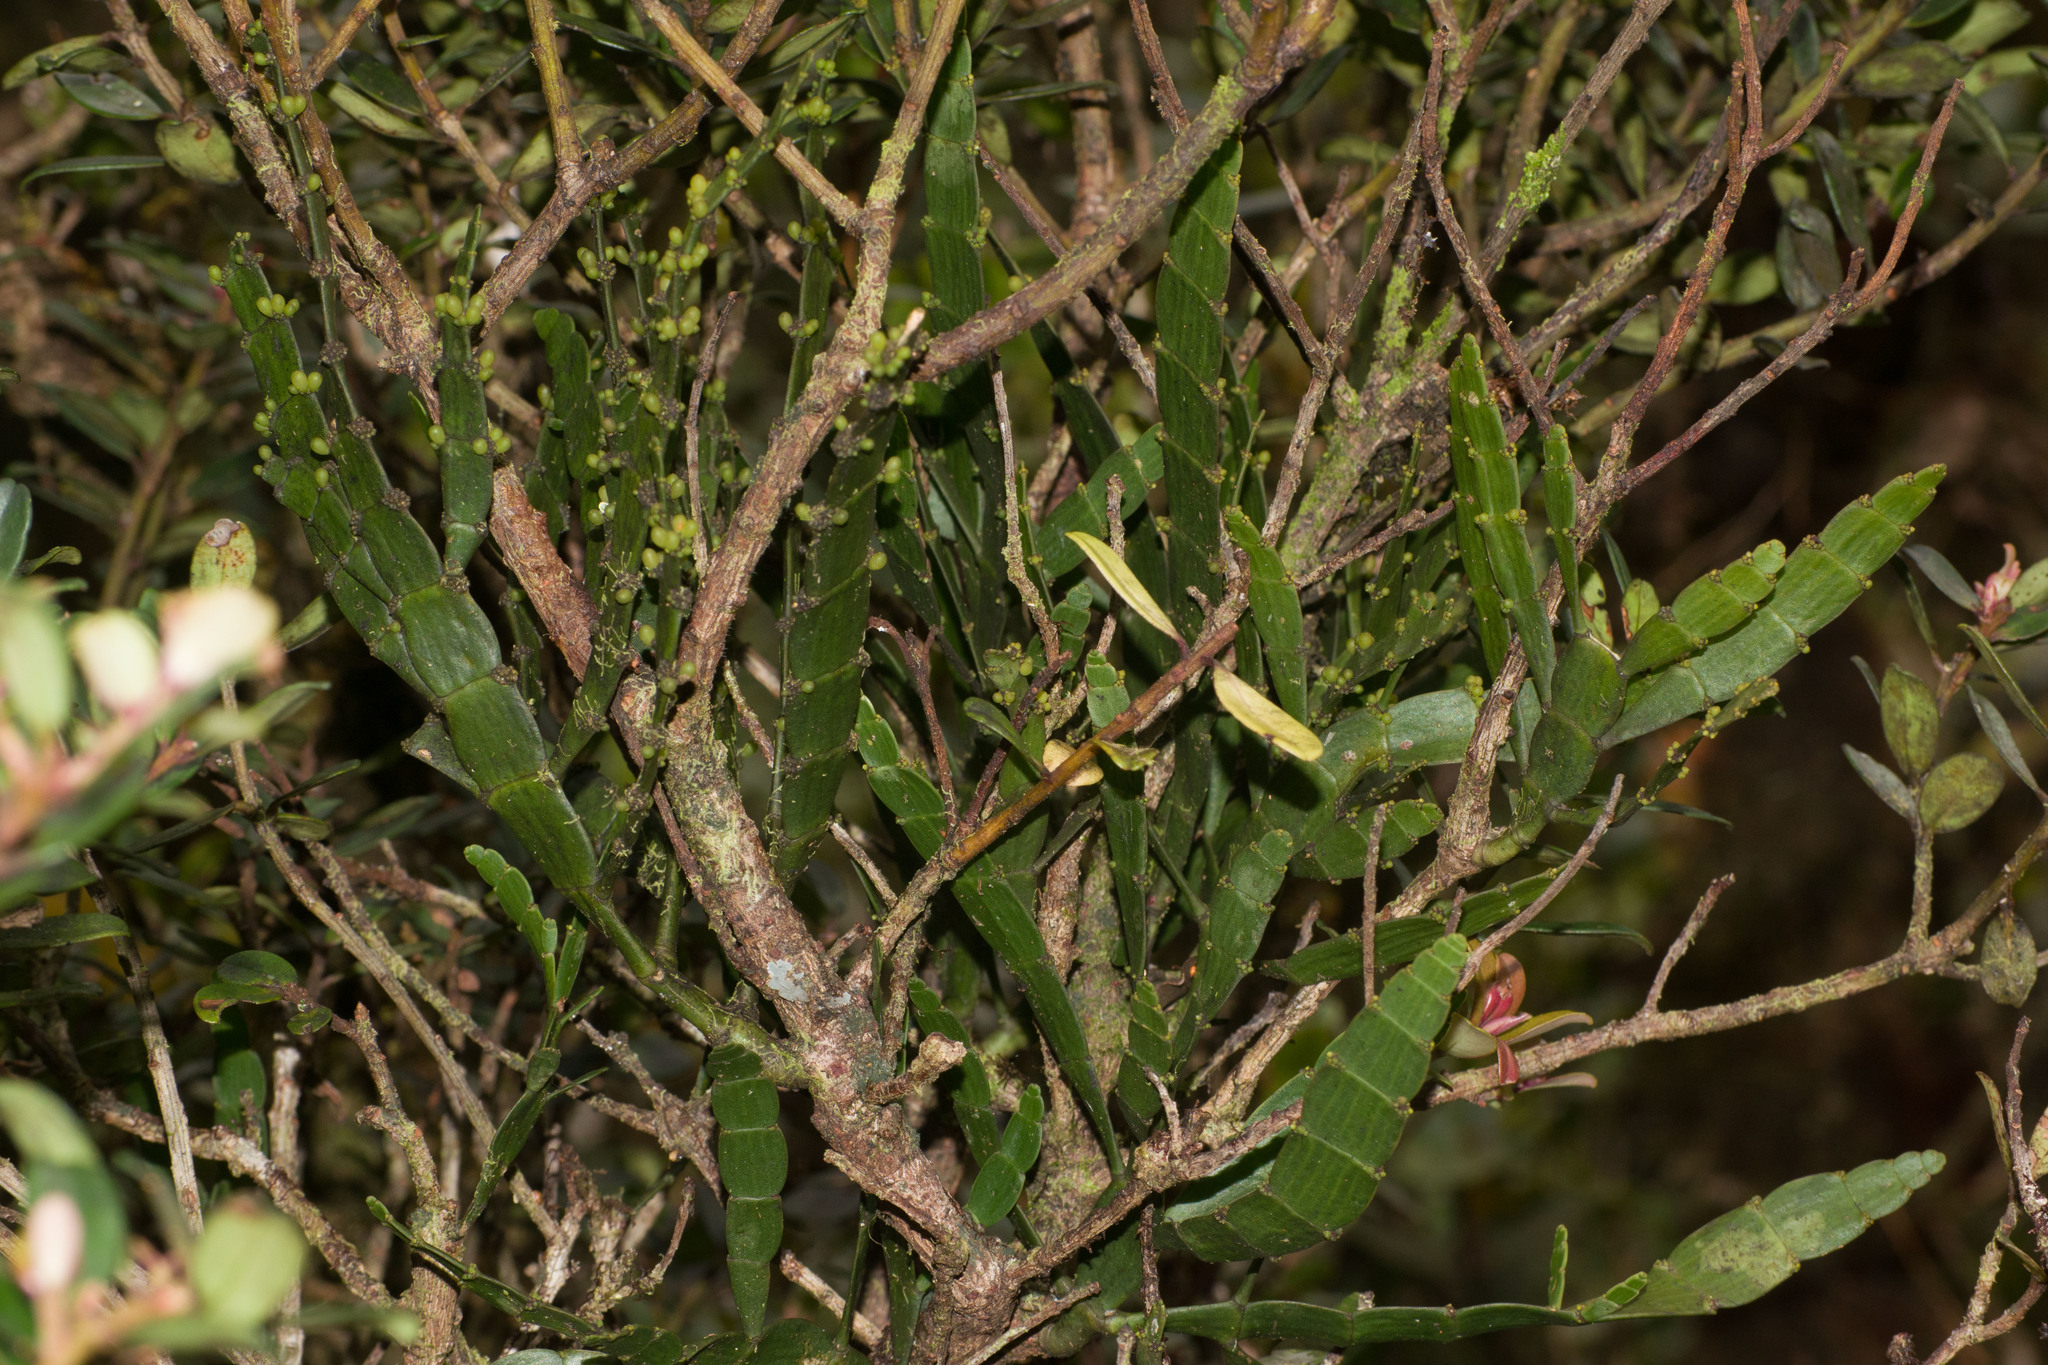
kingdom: Plantae
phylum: Tracheophyta
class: Magnoliopsida
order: Santalales
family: Viscaceae
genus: Korthalsella
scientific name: Korthalsella latissima
